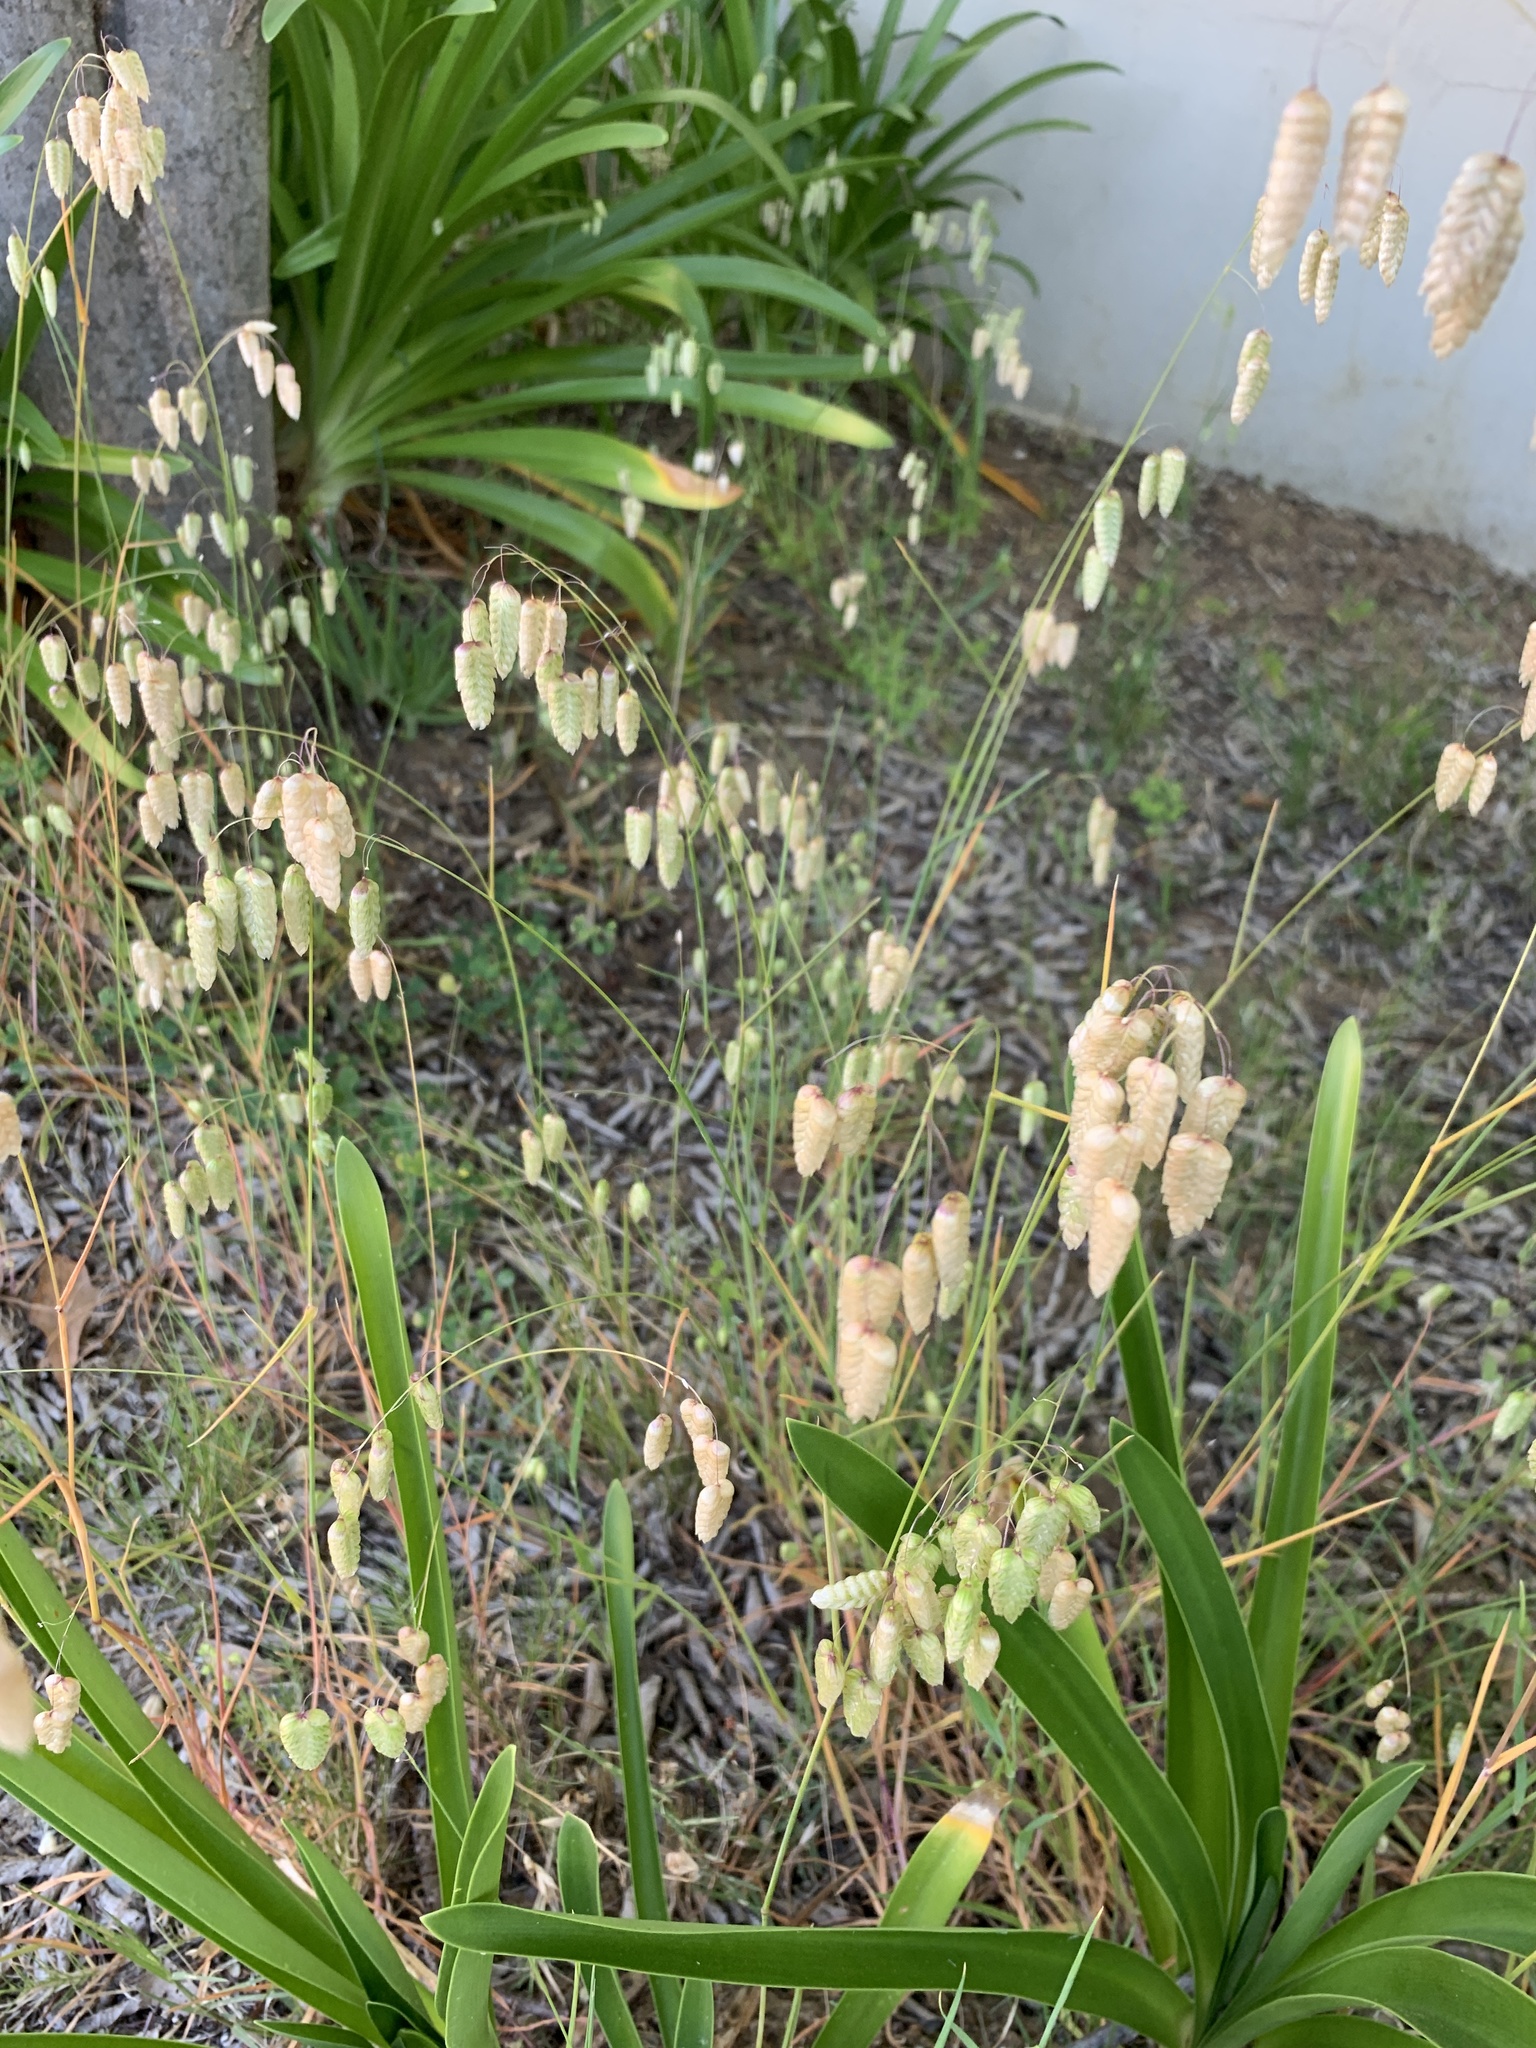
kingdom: Plantae
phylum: Tracheophyta
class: Liliopsida
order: Poales
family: Poaceae
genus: Briza
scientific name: Briza maxima
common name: Big quakinggrass
